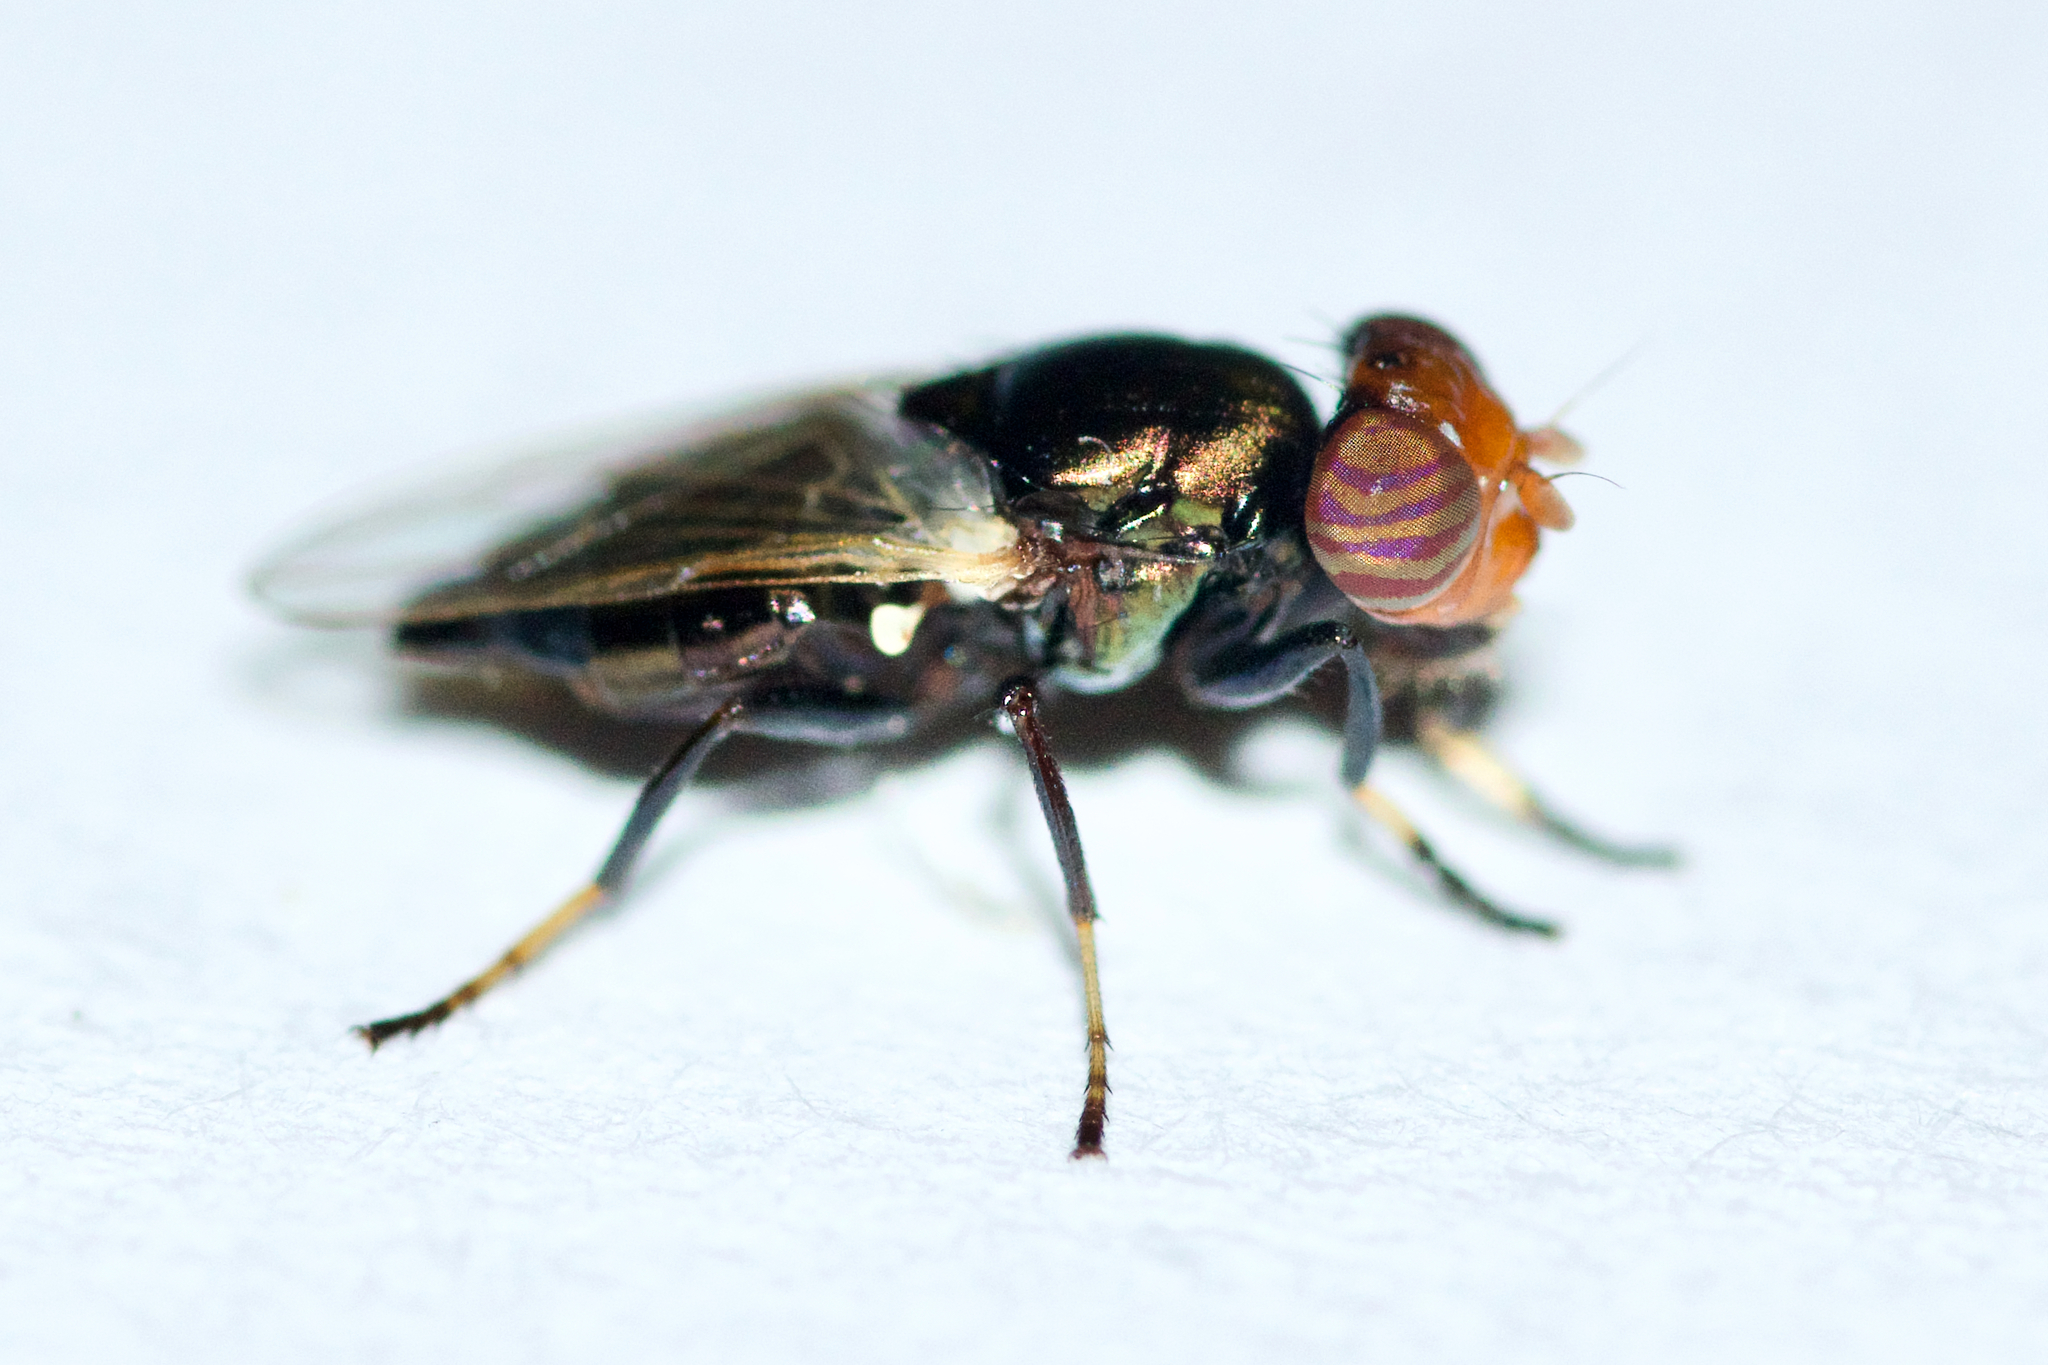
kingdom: Animalia
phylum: Arthropoda
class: Insecta
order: Diptera
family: Ulidiidae
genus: Physiphora
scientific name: Physiphora alceae
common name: Picture-winged fly
